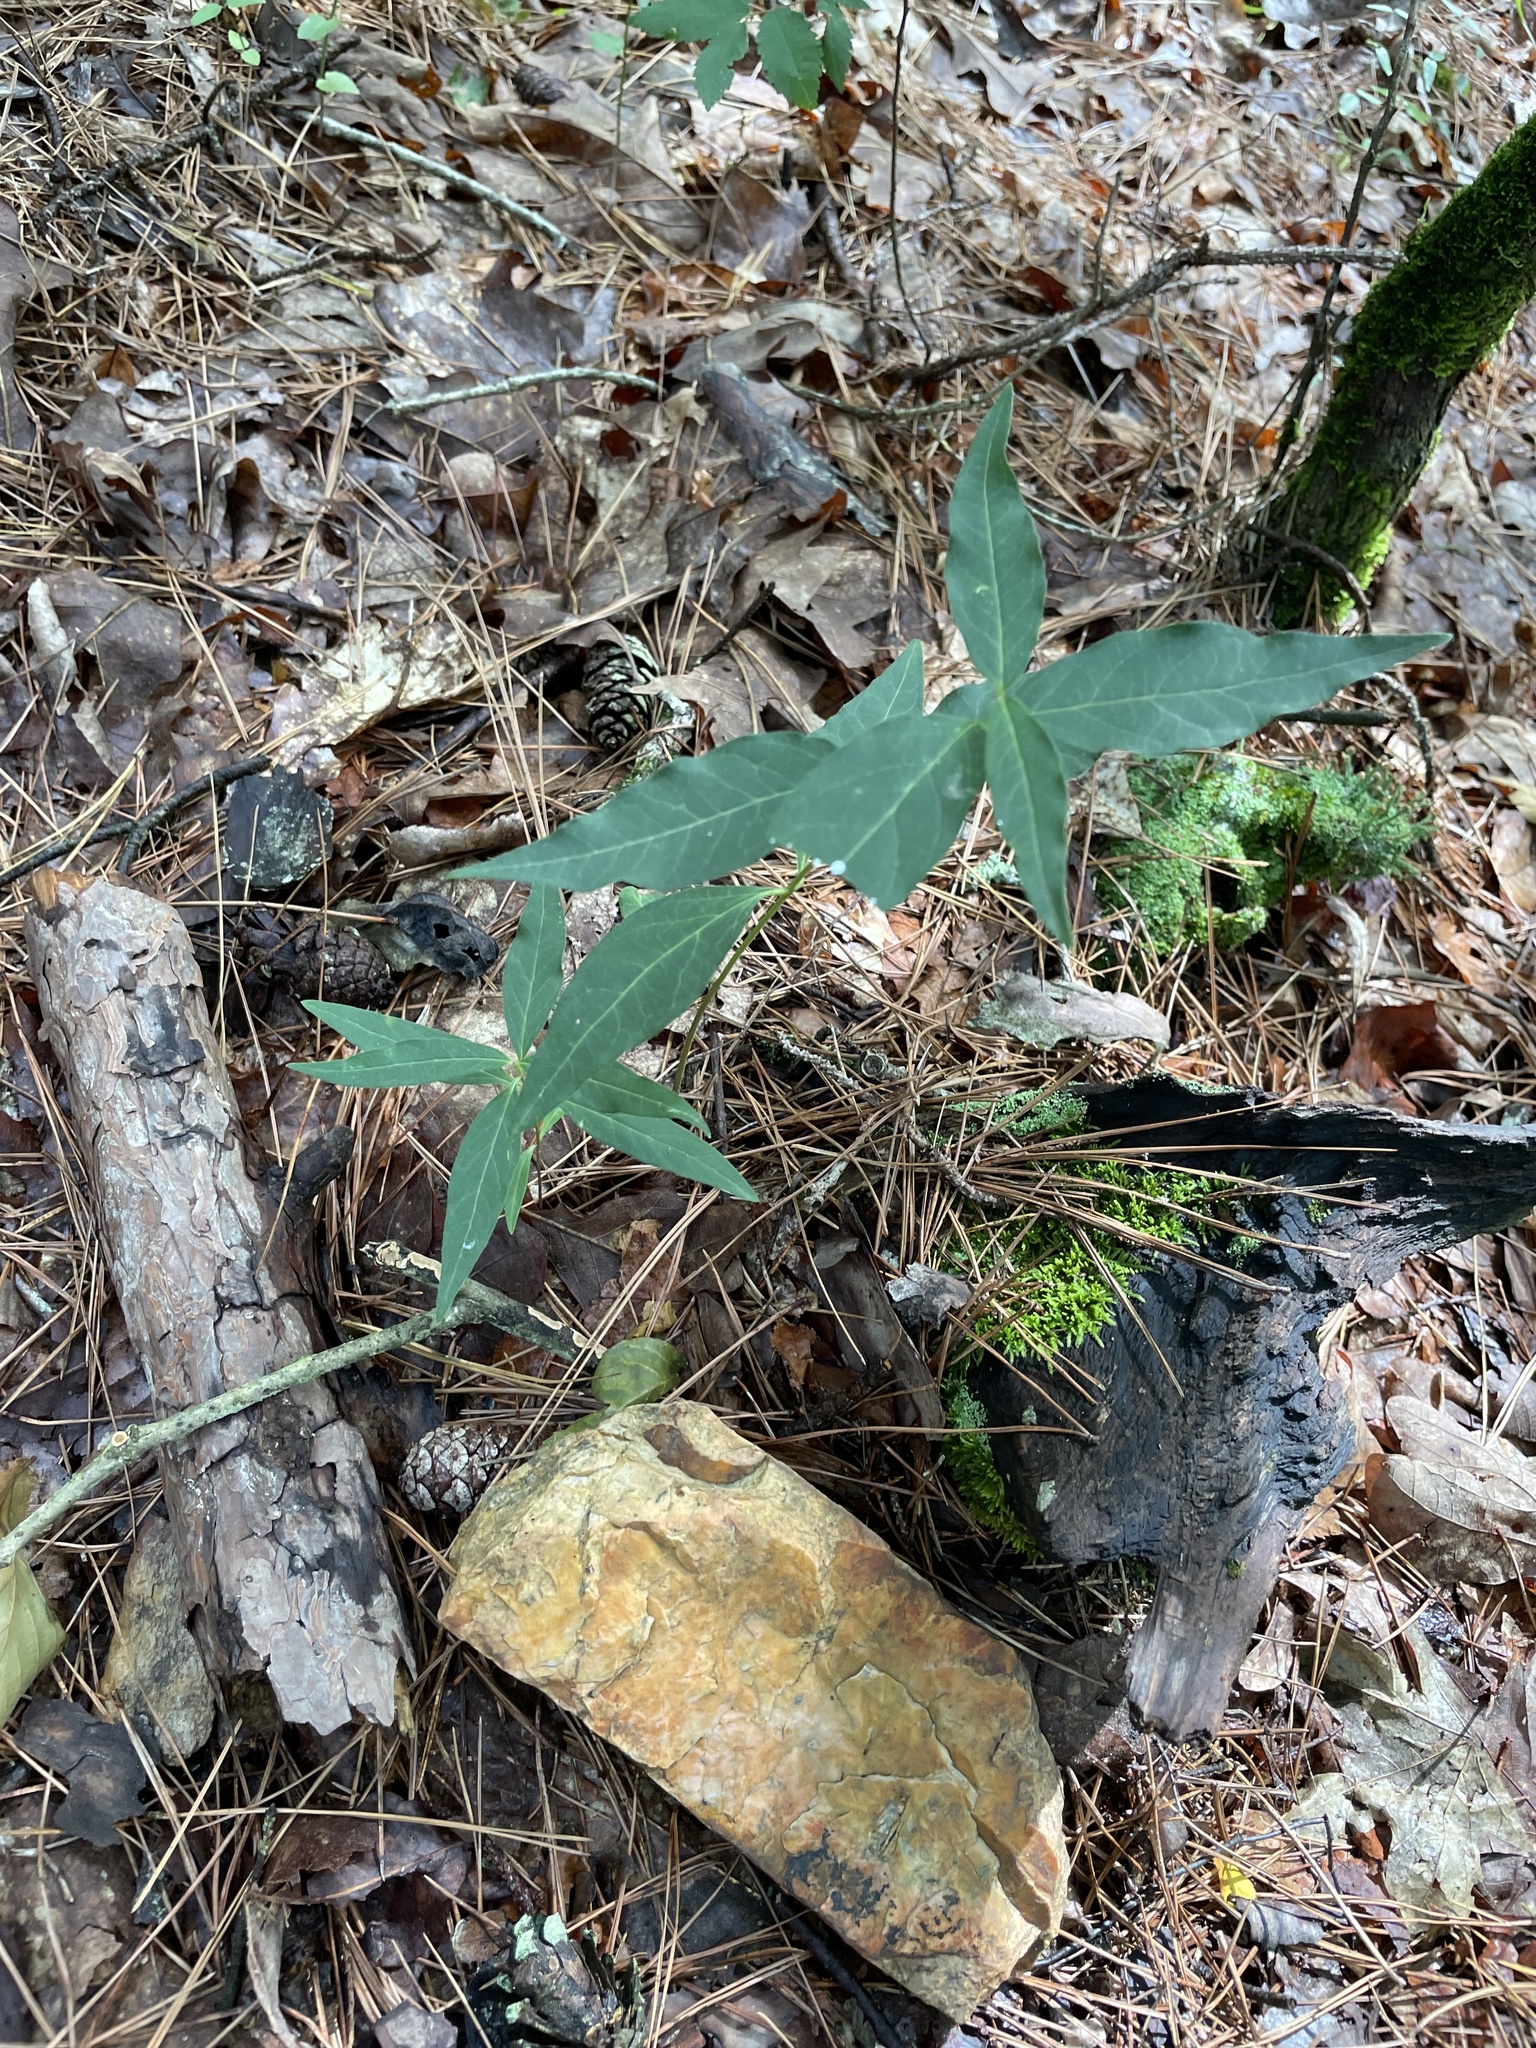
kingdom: Plantae
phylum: Tracheophyta
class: Magnoliopsida
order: Gentianales
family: Apocynaceae
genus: Asclepias
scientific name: Asclepias quadrifolia
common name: Whorled milkweed
